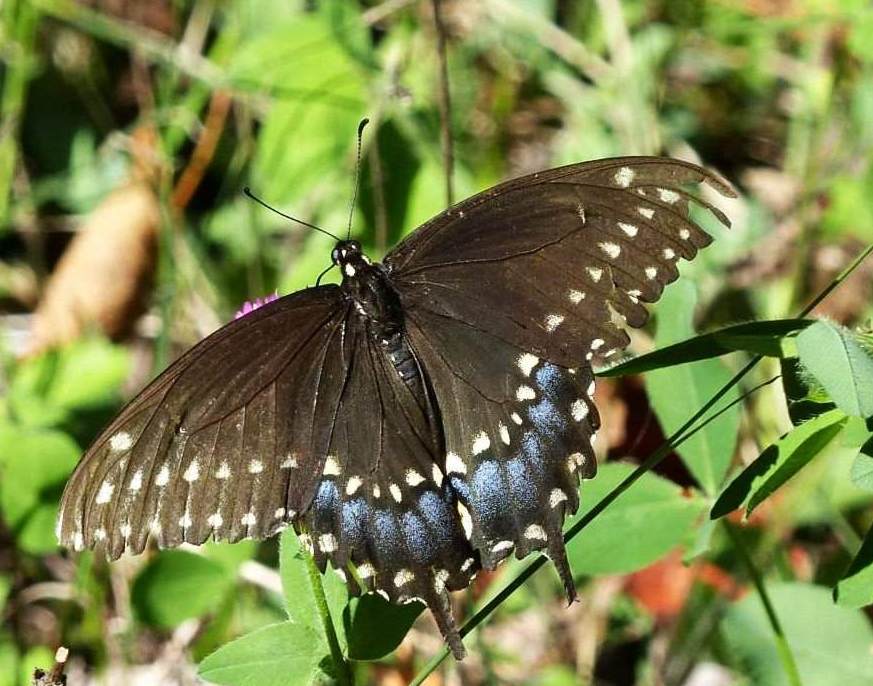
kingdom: Animalia
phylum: Arthropoda
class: Insecta
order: Lepidoptera
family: Papilionidae
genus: Papilio
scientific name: Papilio polyxenes
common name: Black swallowtail
